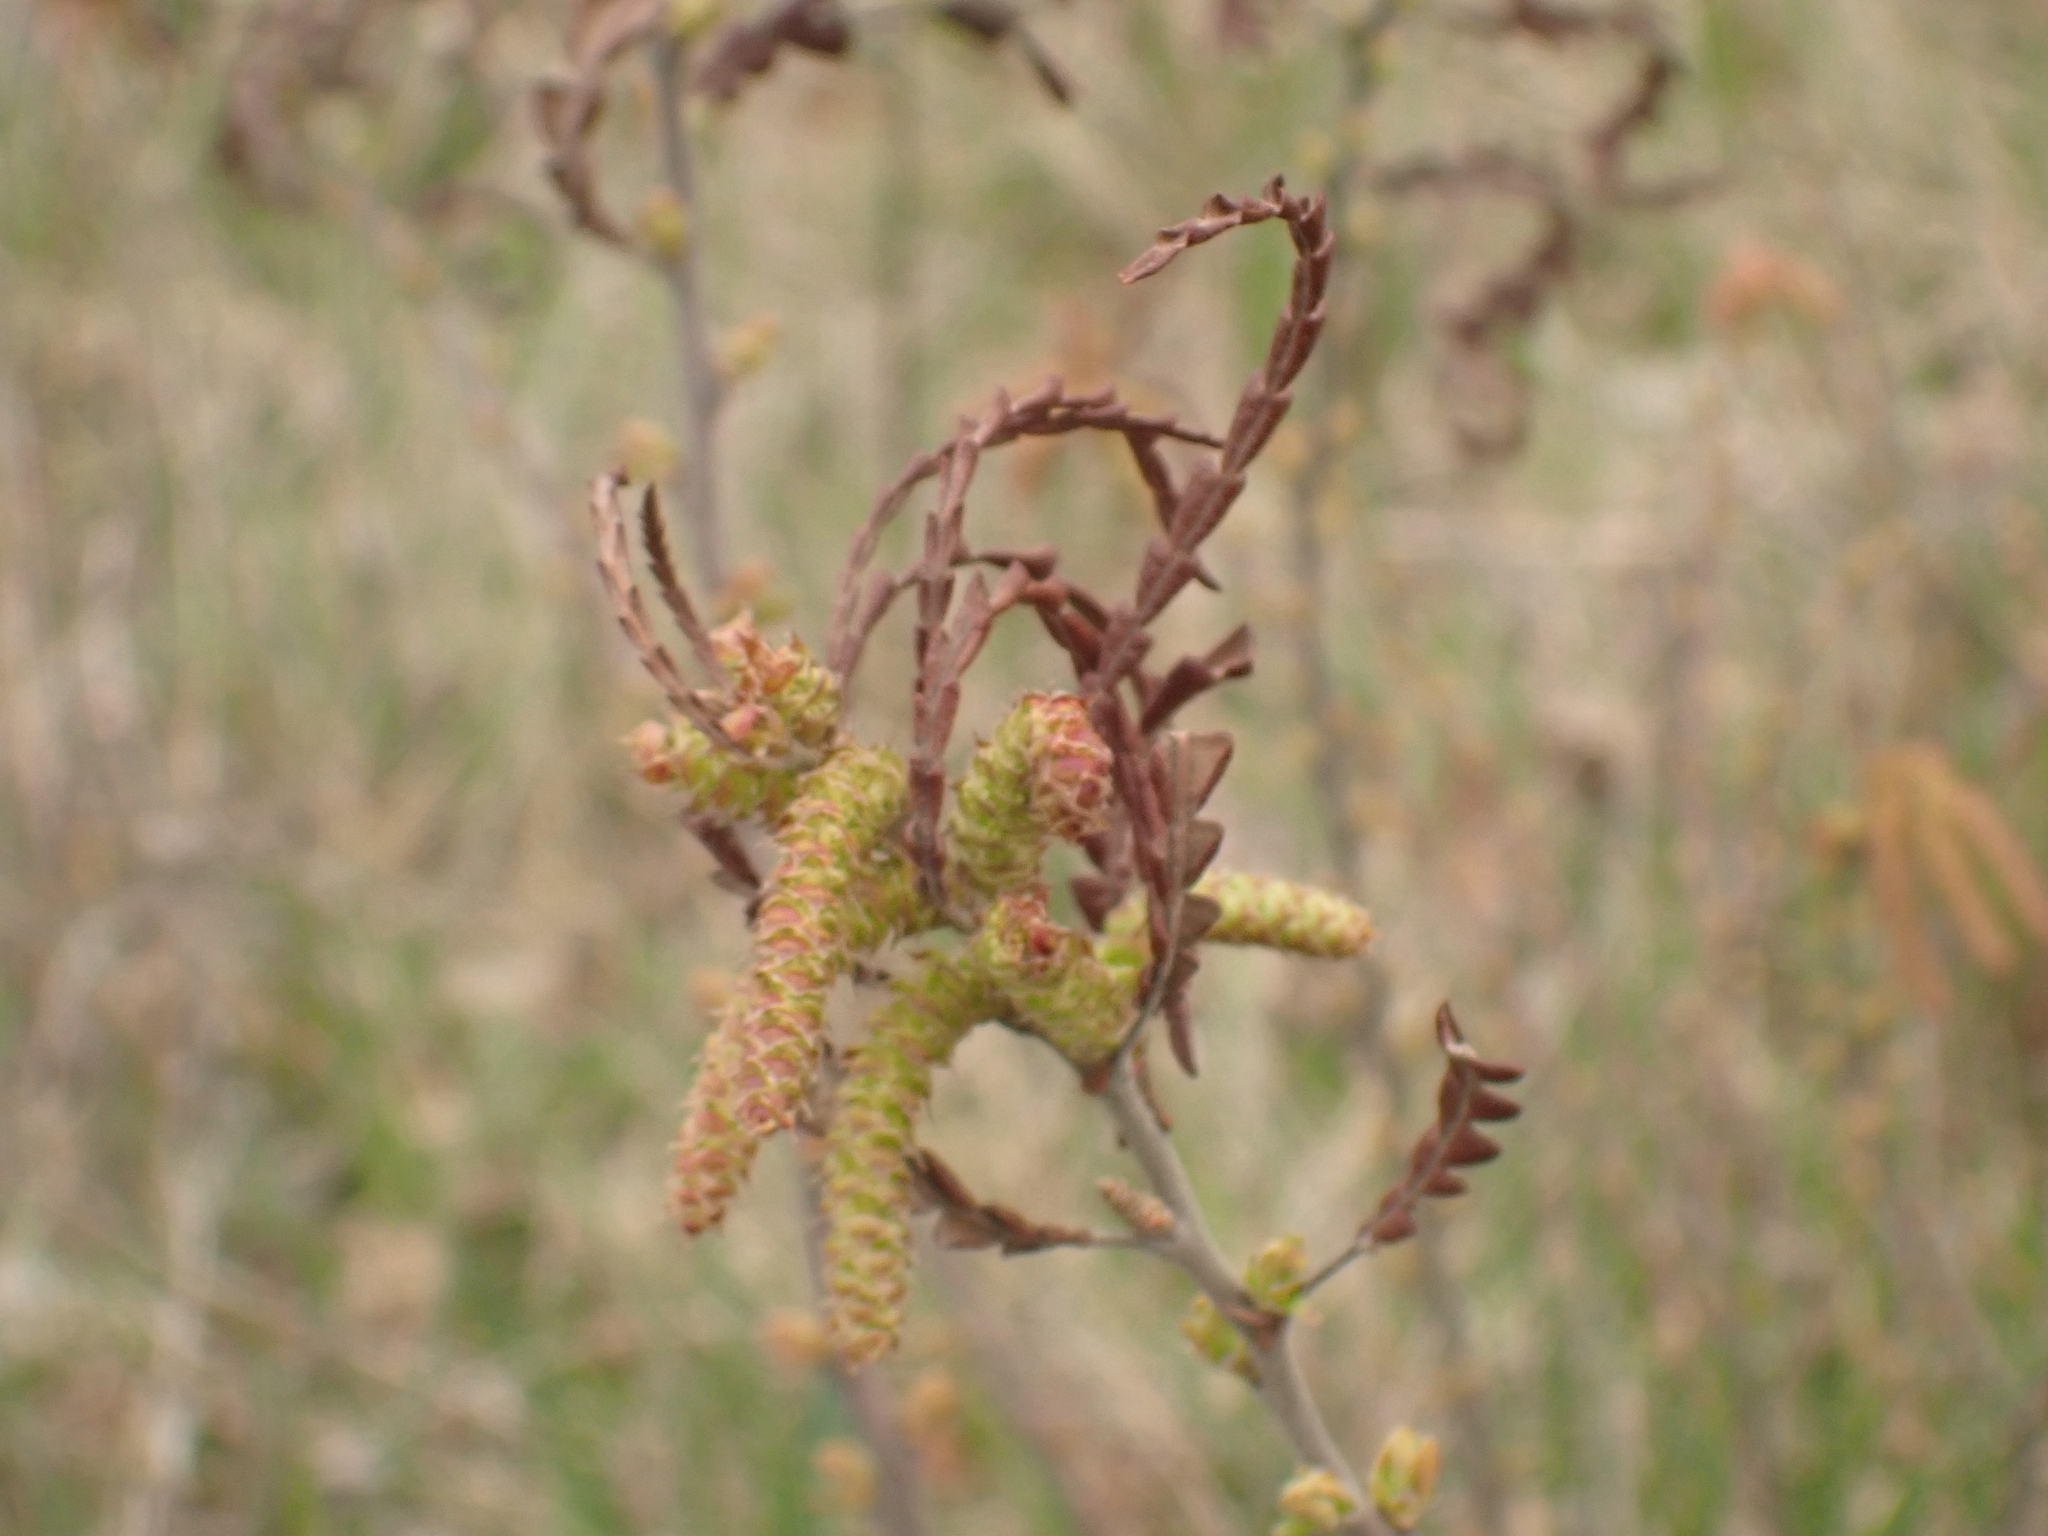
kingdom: Plantae
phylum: Tracheophyta
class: Magnoliopsida
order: Fagales
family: Myricaceae
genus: Comptonia
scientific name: Comptonia peregrina
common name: Sweet-fern
